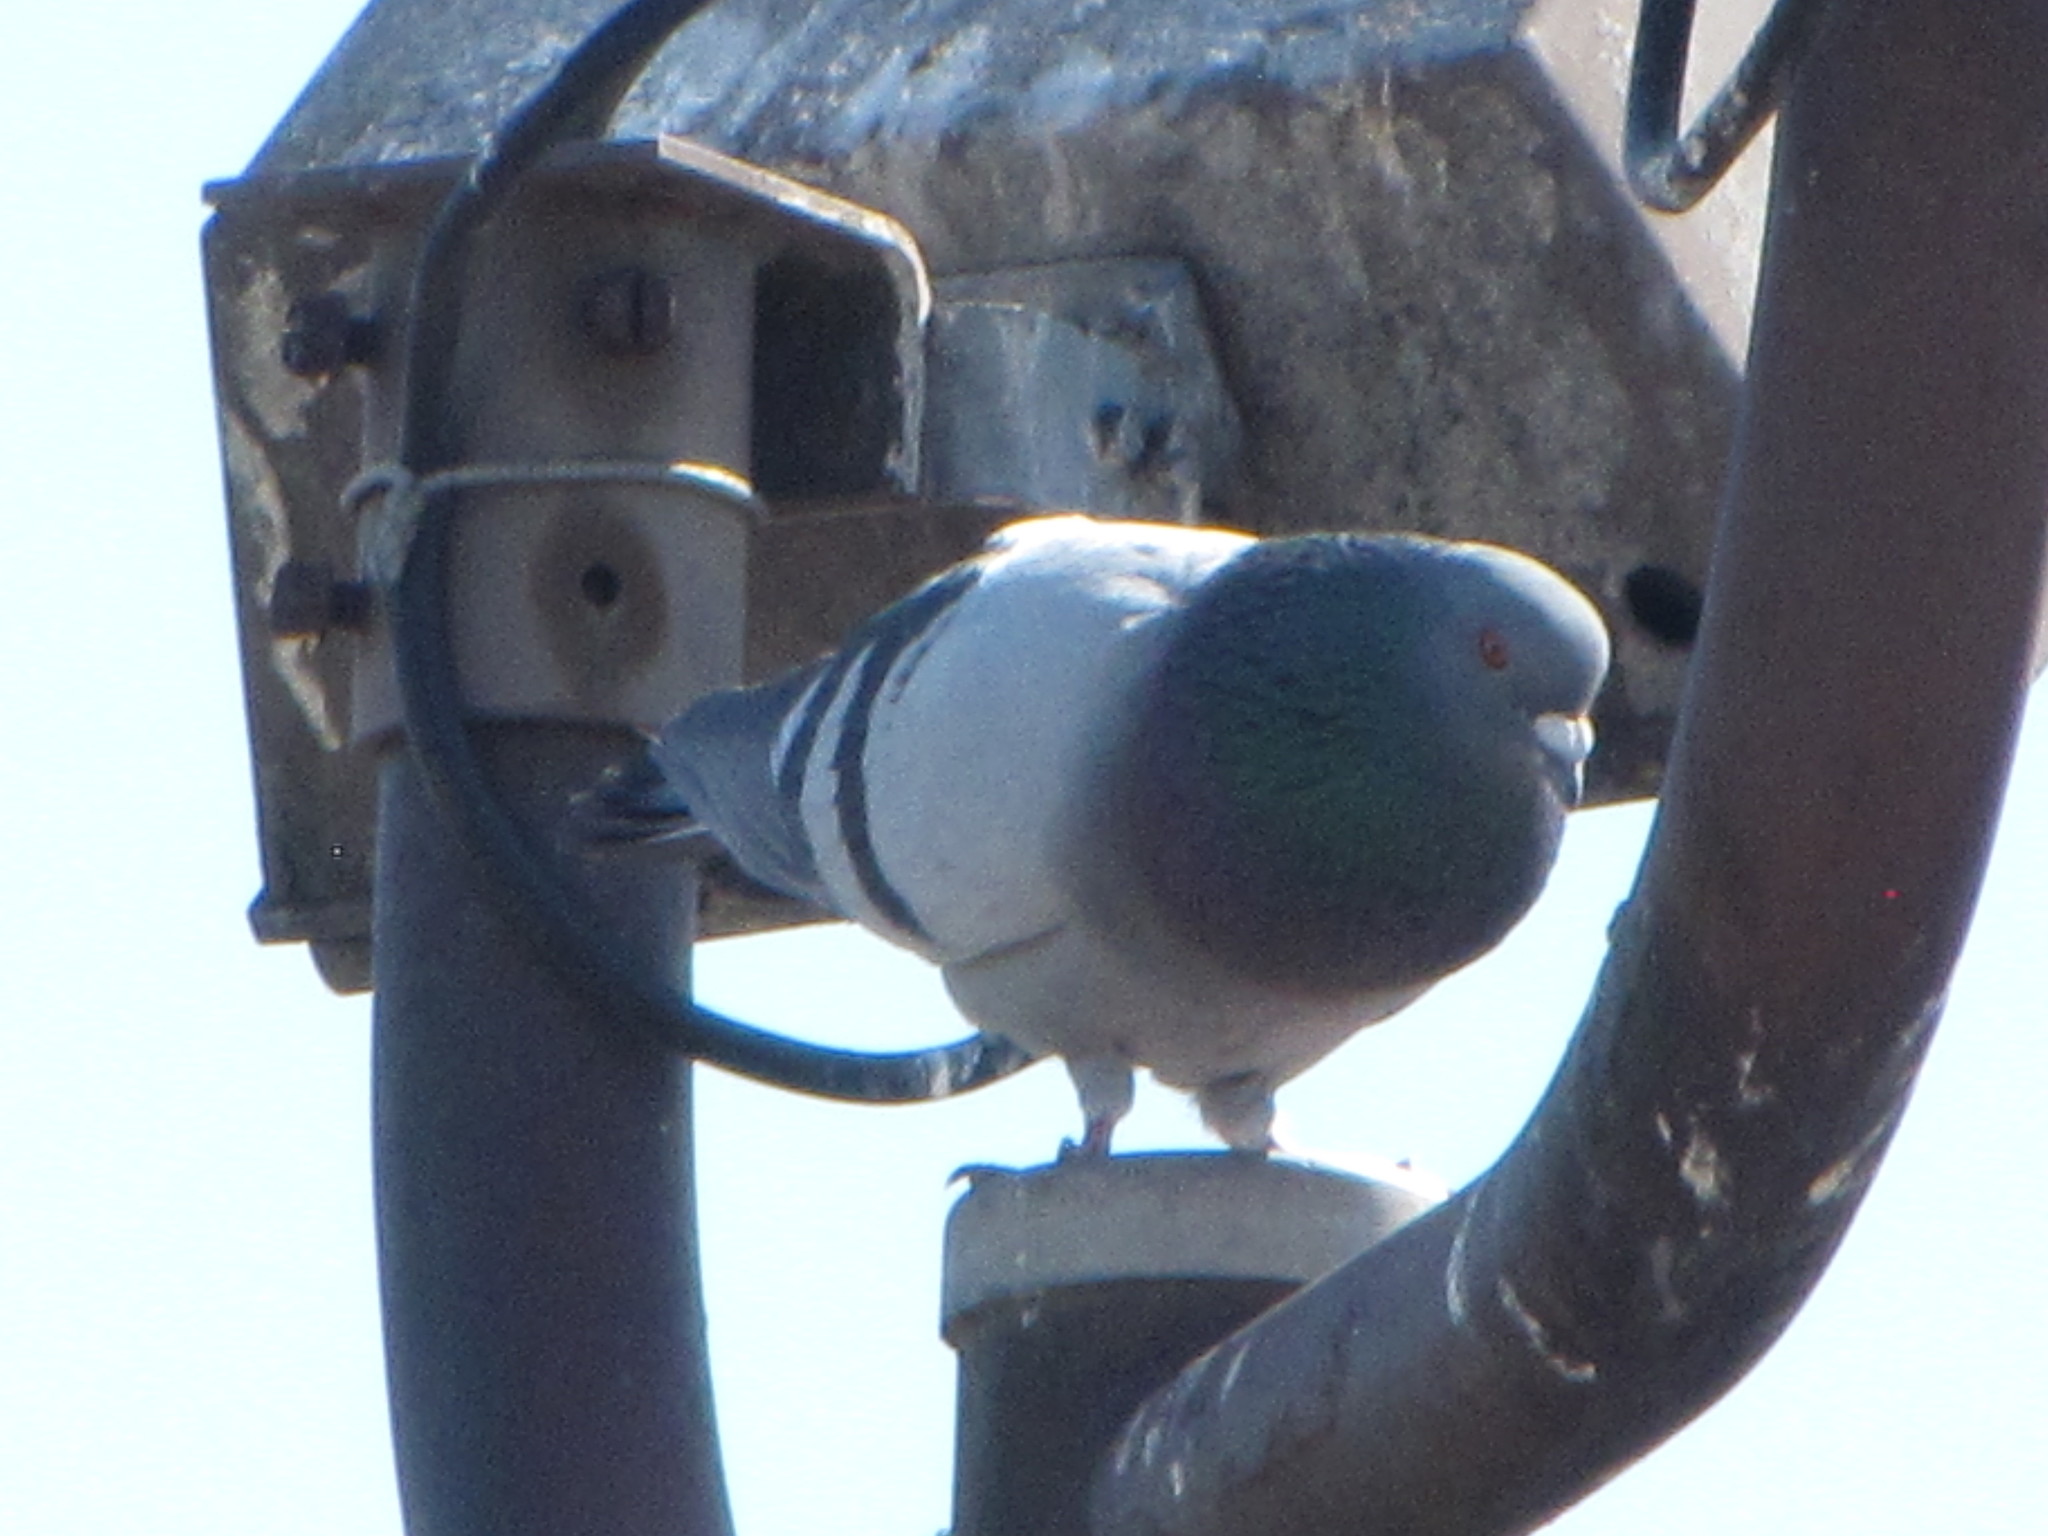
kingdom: Animalia
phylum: Chordata
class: Aves
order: Columbiformes
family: Columbidae
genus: Columba
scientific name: Columba livia
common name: Rock pigeon
